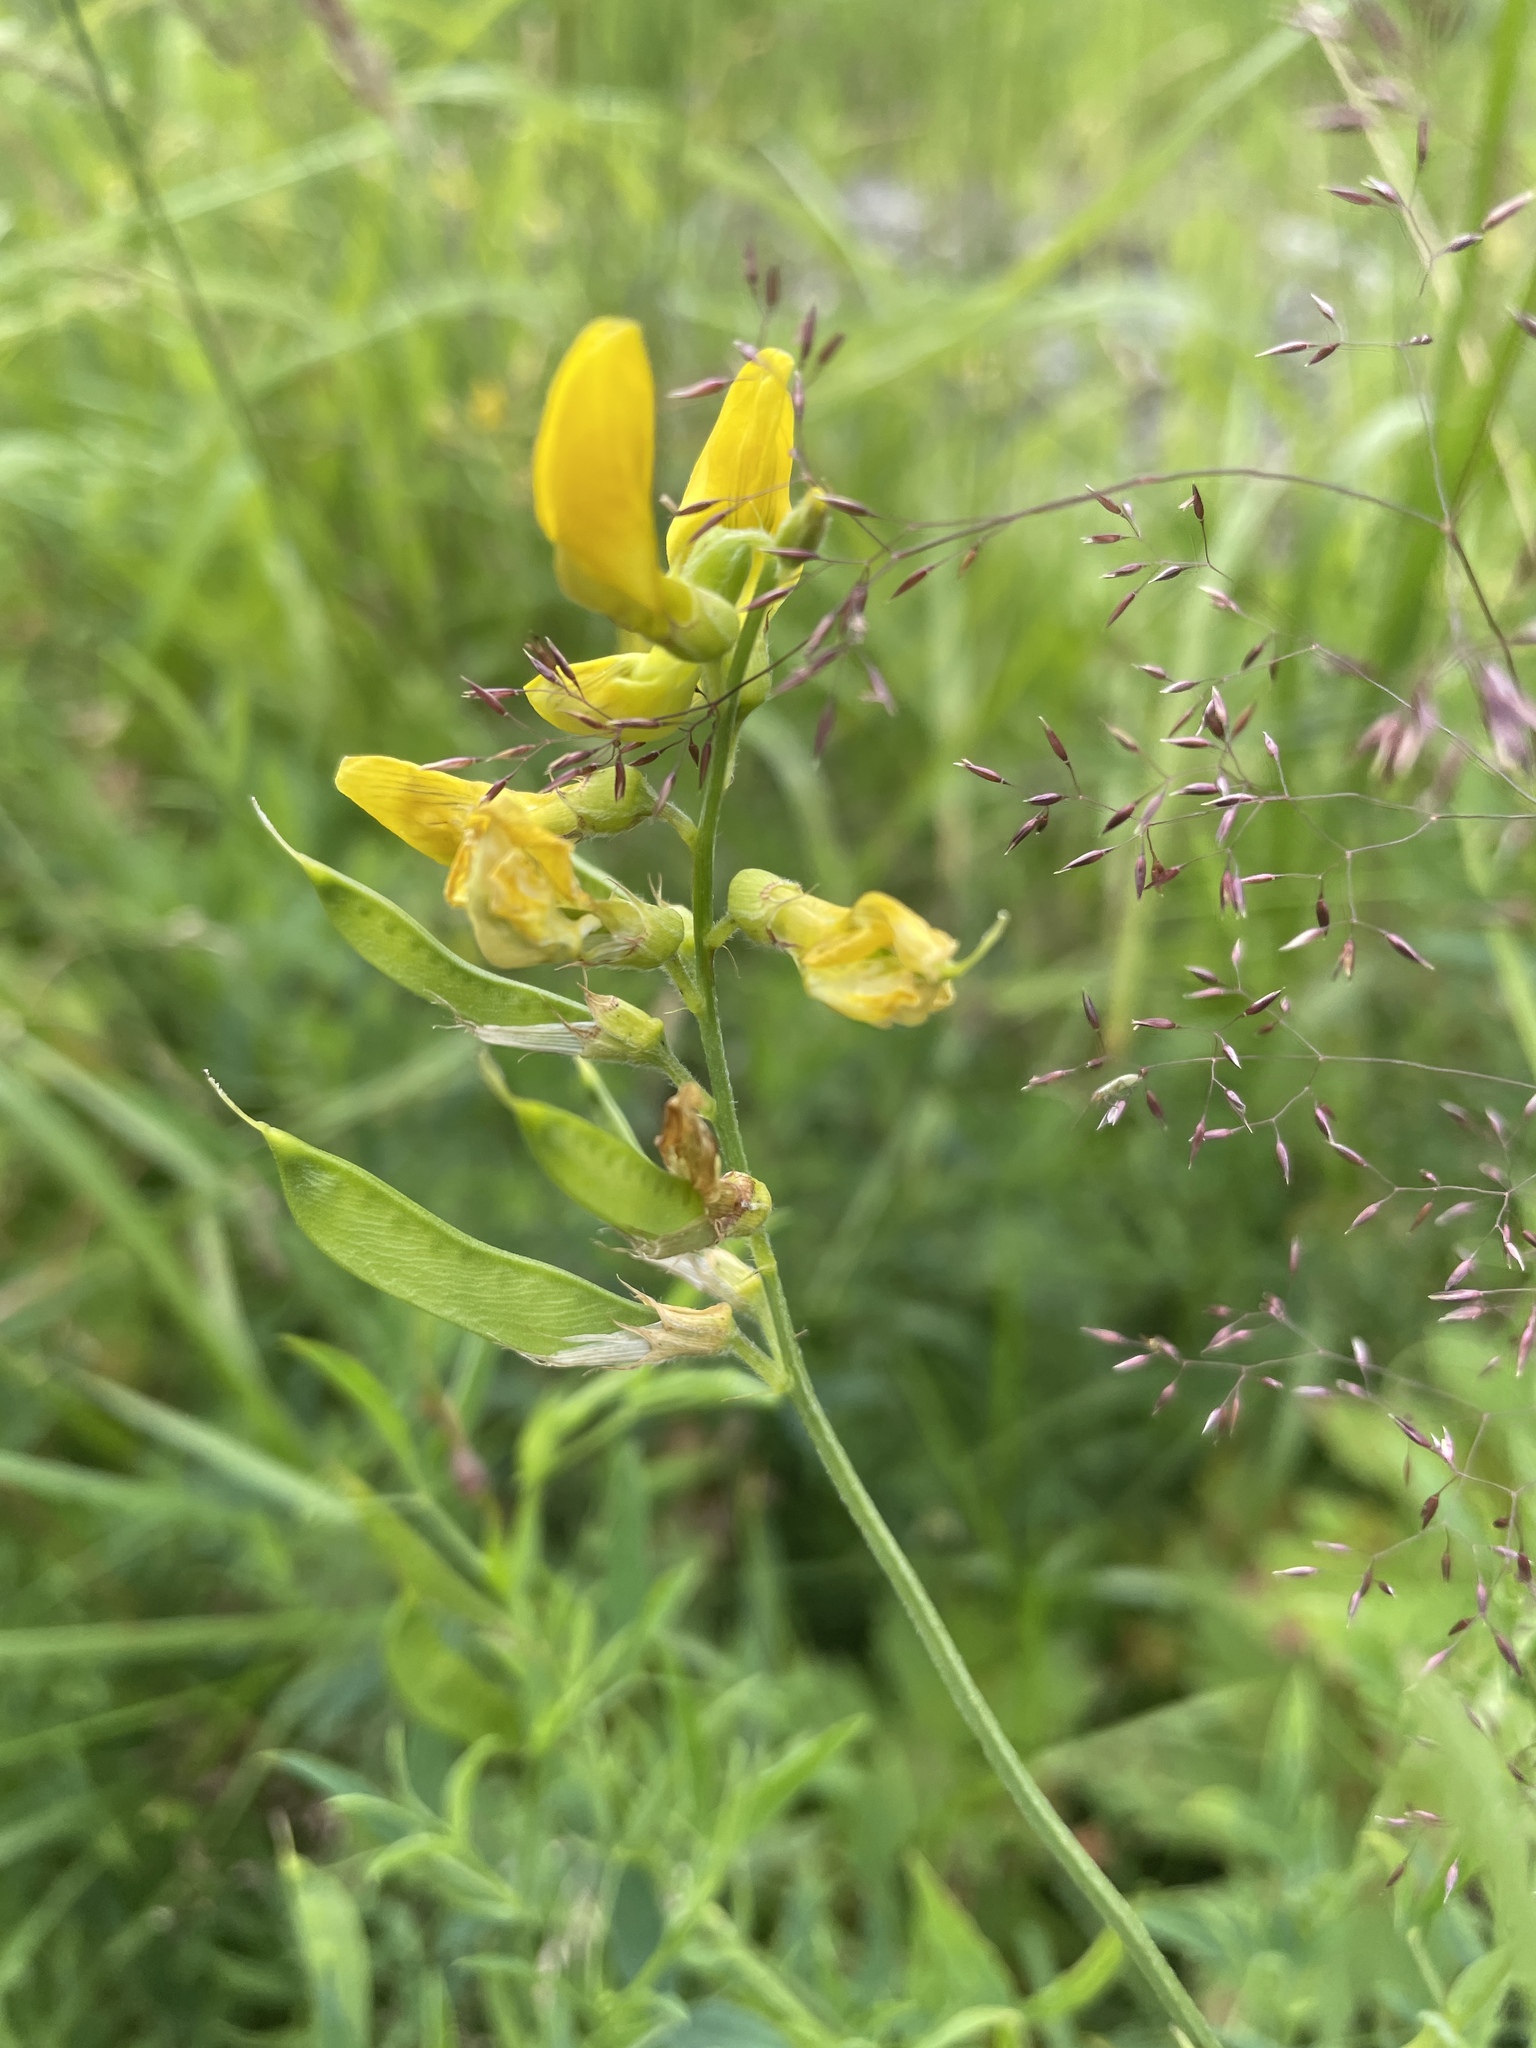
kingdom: Plantae
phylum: Tracheophyta
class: Magnoliopsida
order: Fabales
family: Fabaceae
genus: Lathyrus
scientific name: Lathyrus pratensis
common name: Meadow vetchling
